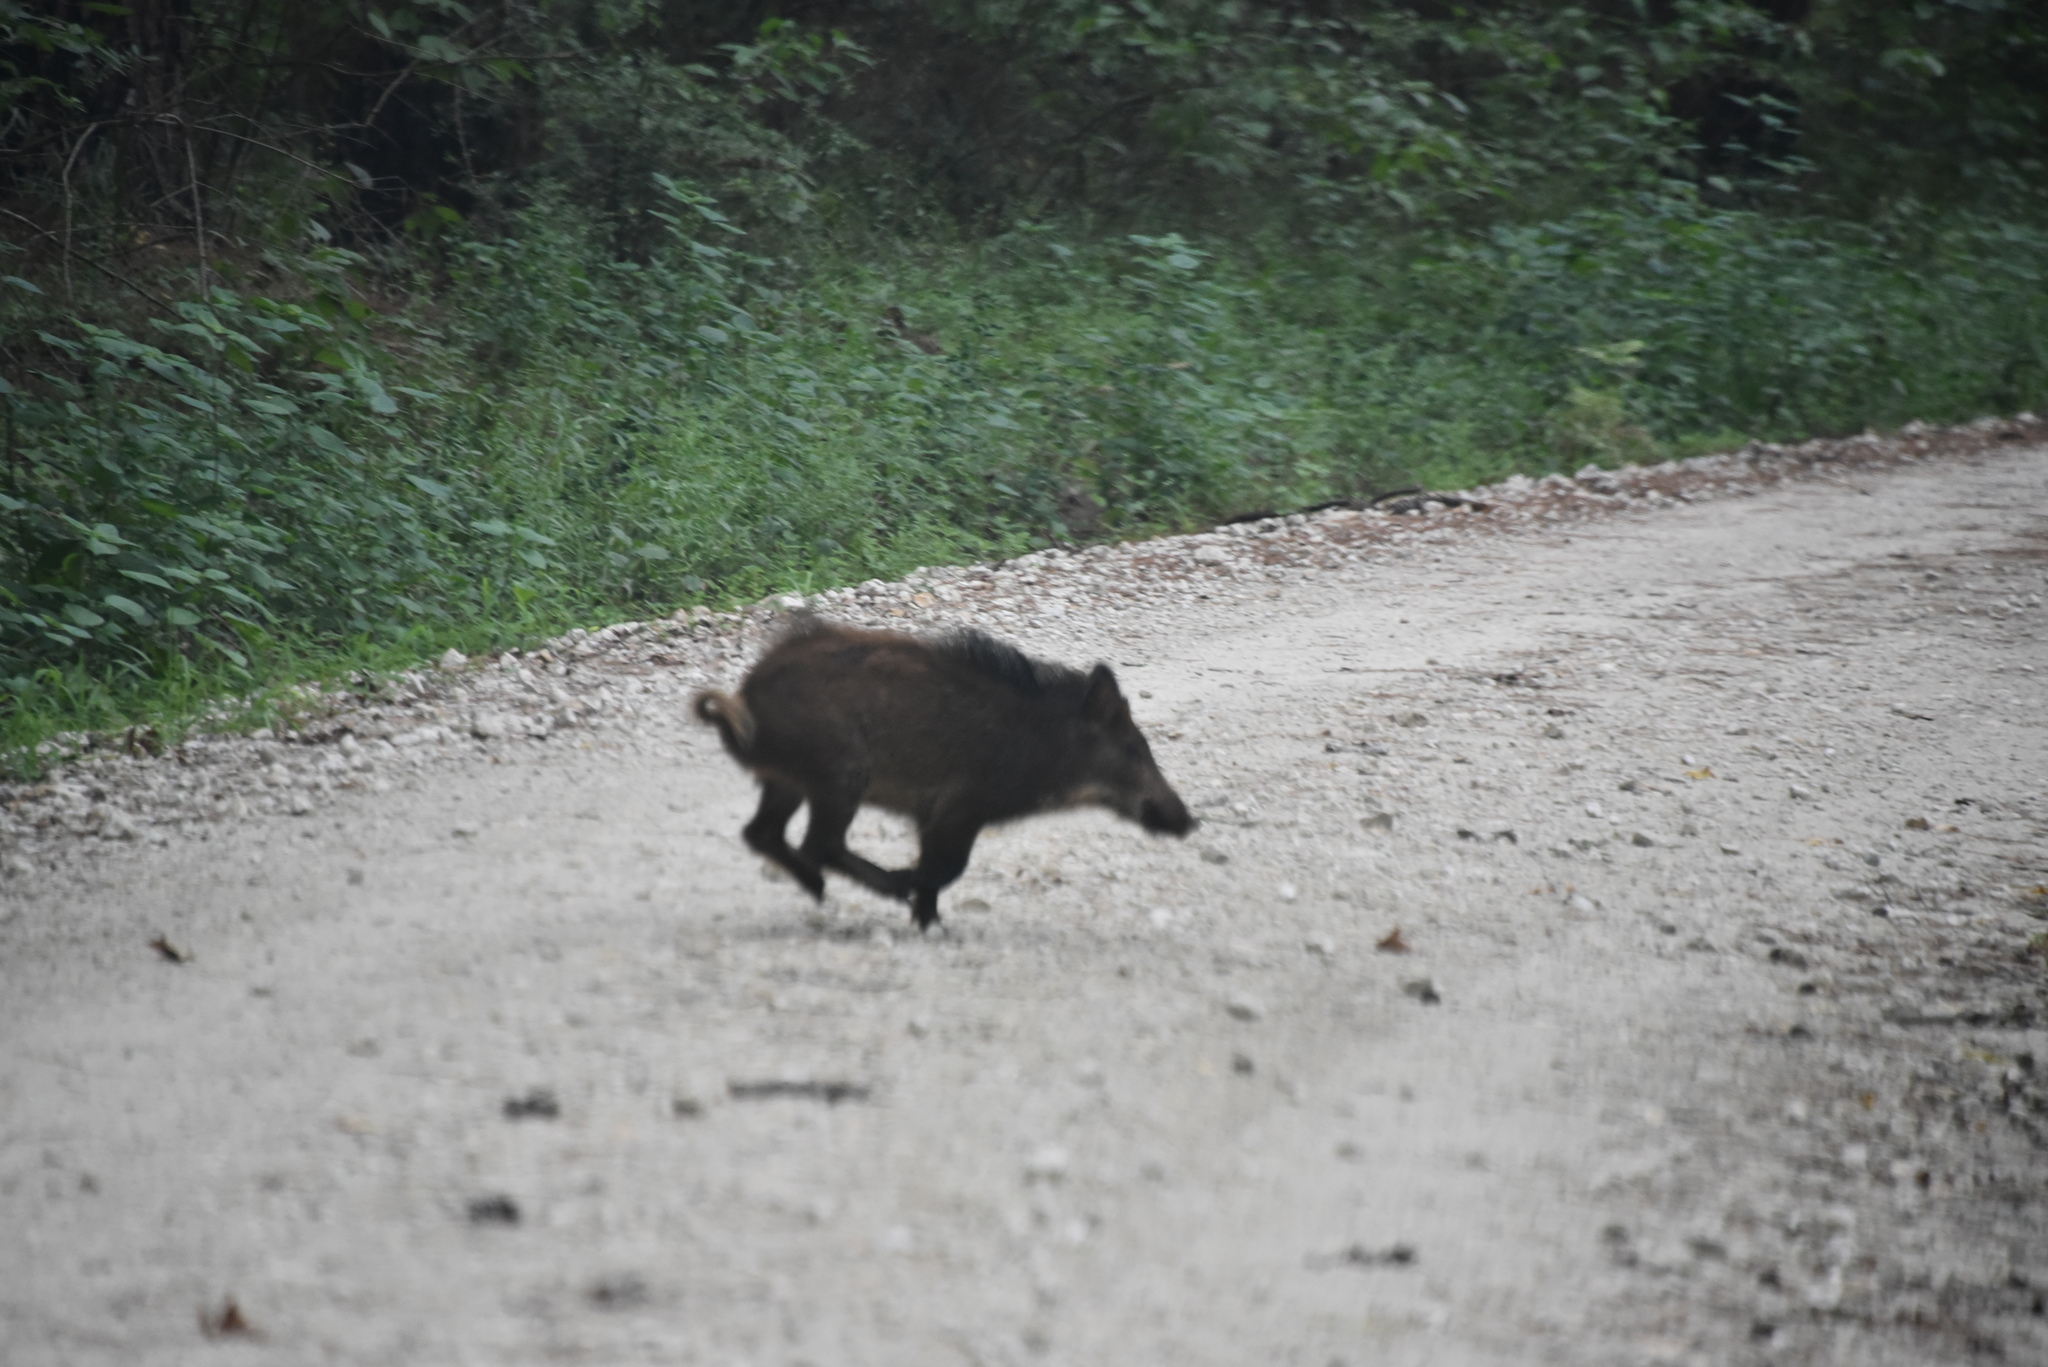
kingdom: Animalia
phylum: Chordata
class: Mammalia
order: Artiodactyla
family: Suidae
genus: Sus
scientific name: Sus scrofa
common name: Wild boar
